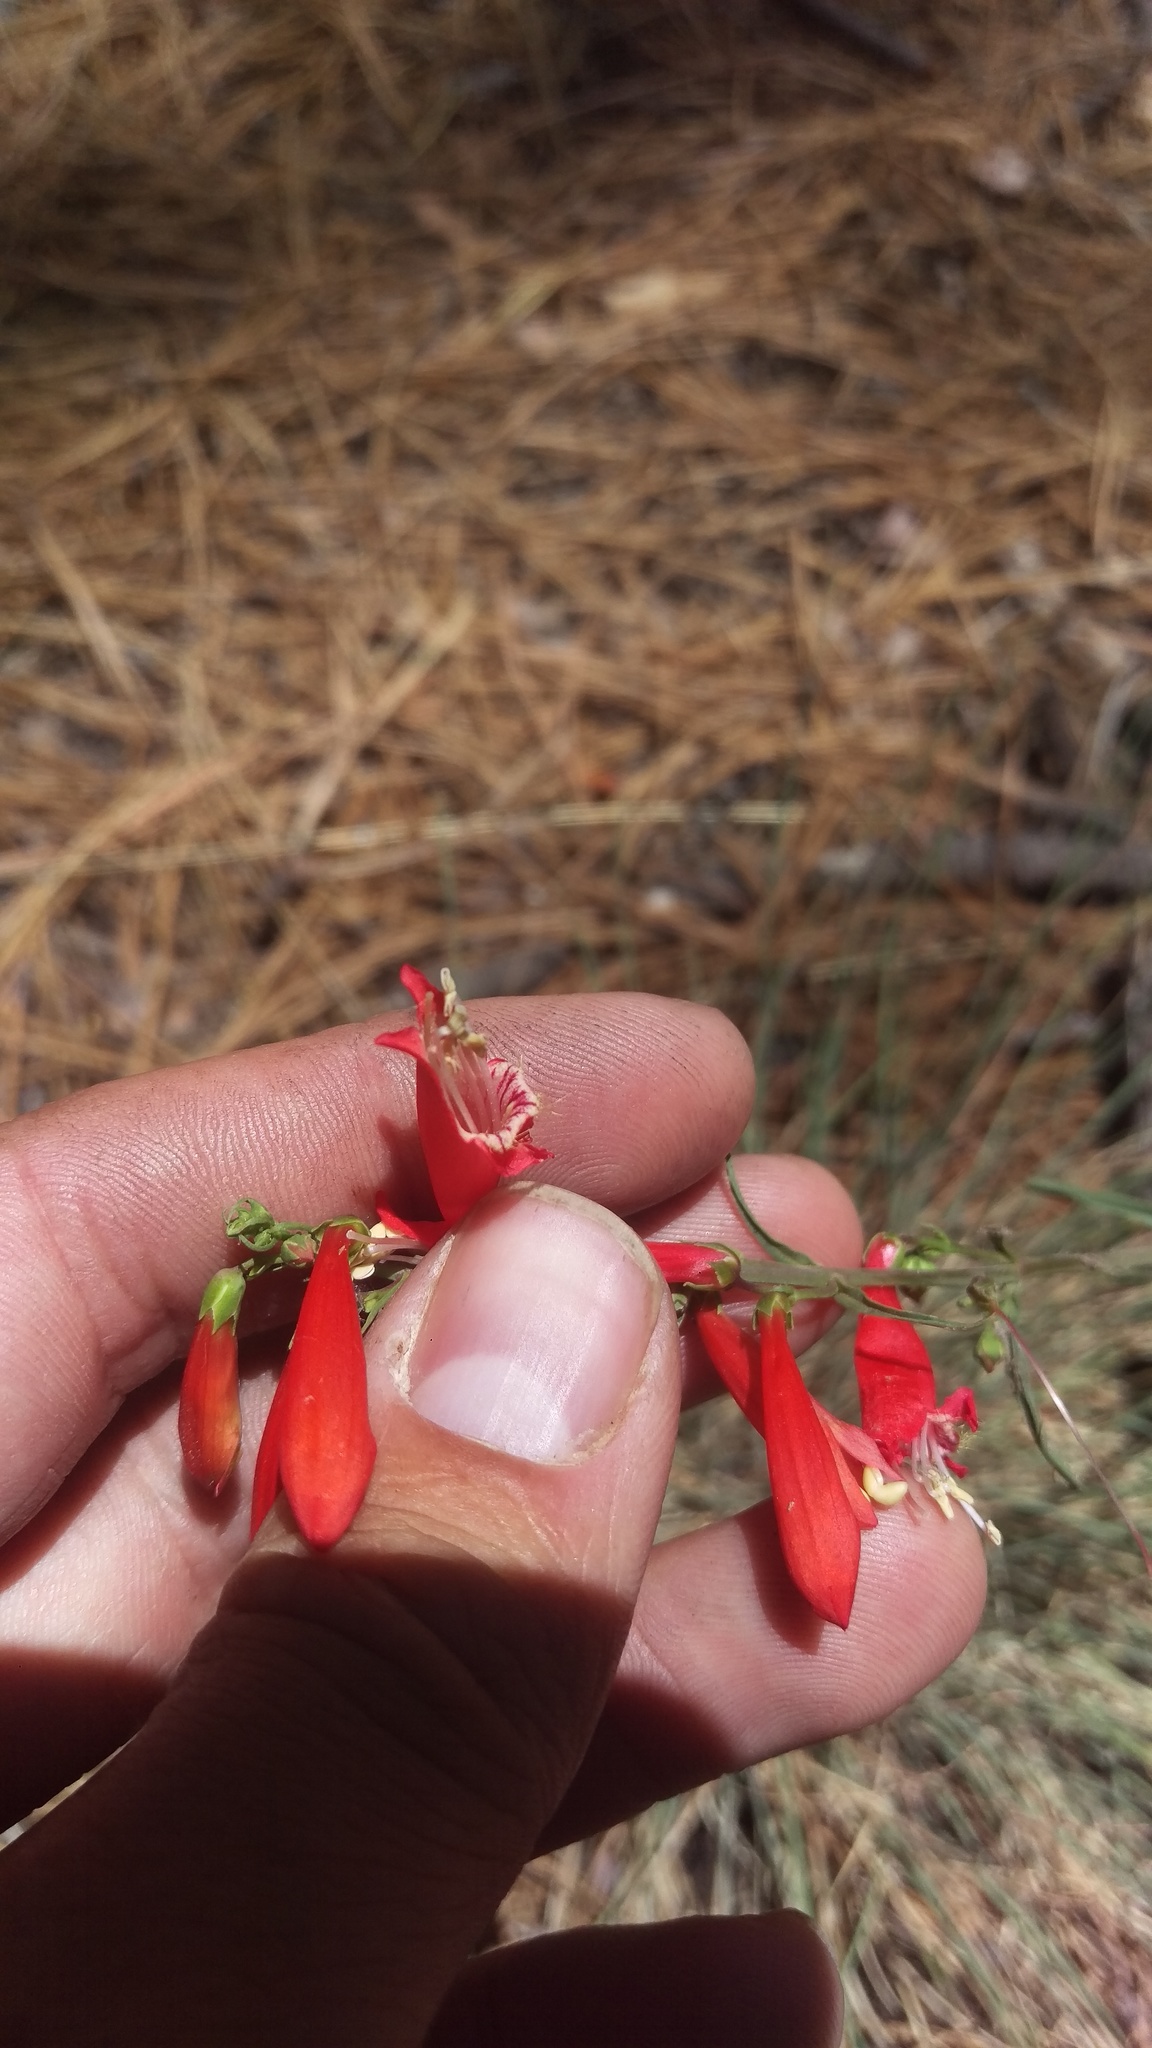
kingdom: Plantae
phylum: Tracheophyta
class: Magnoliopsida
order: Lamiales
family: Plantaginaceae
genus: Penstemon
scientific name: Penstemon barbatus
